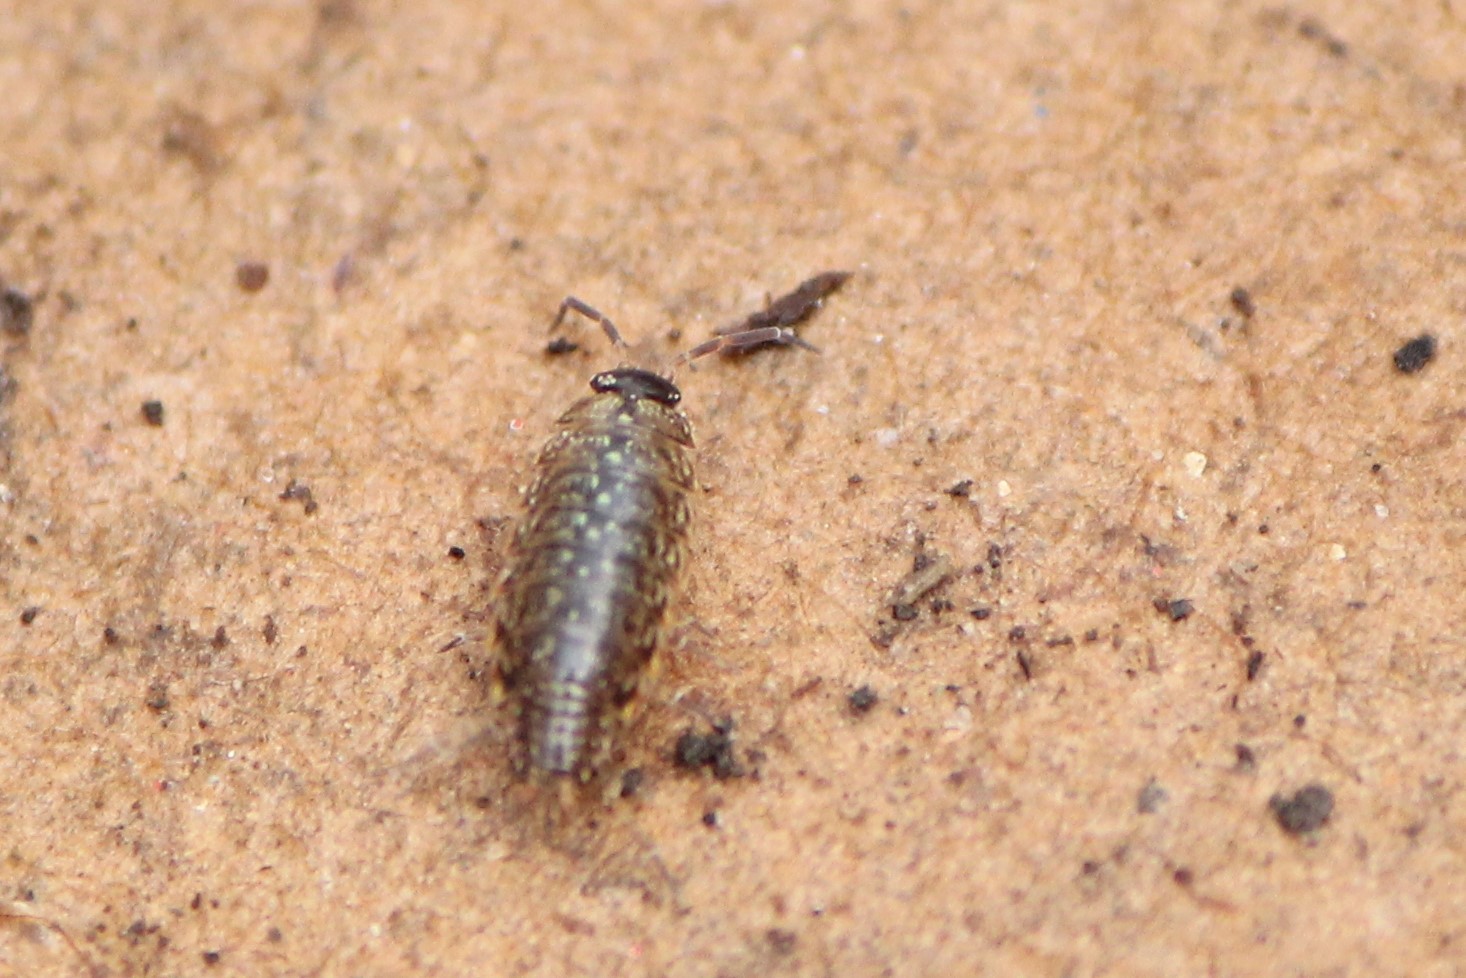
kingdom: Animalia
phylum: Arthropoda
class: Malacostraca
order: Isopoda
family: Philosciidae
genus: Philoscia
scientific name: Philoscia muscorum
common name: Common striped woodlouse
